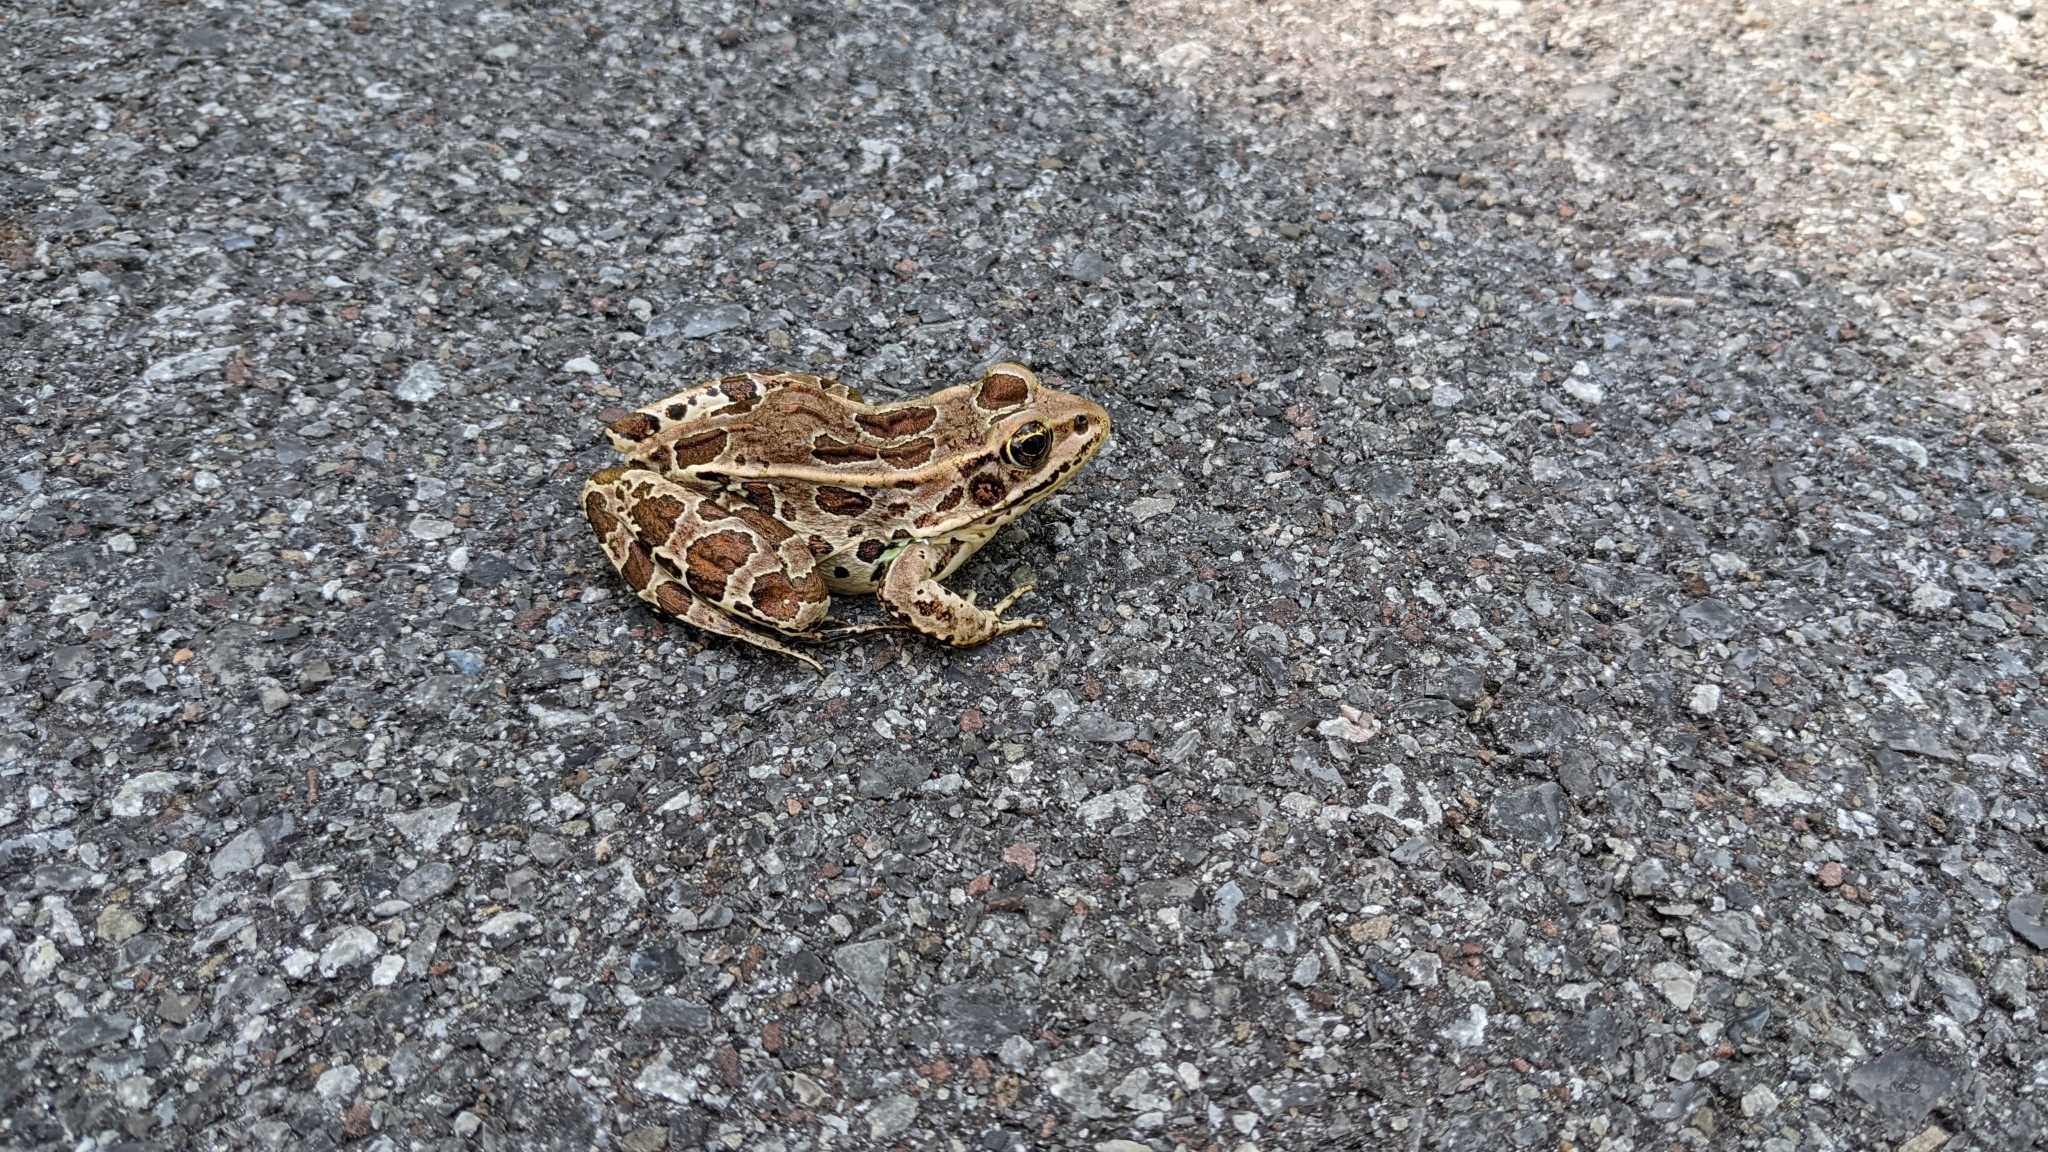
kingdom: Animalia
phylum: Chordata
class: Amphibia
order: Anura
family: Ranidae
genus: Lithobates
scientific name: Lithobates pipiens
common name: Northern leopard frog
